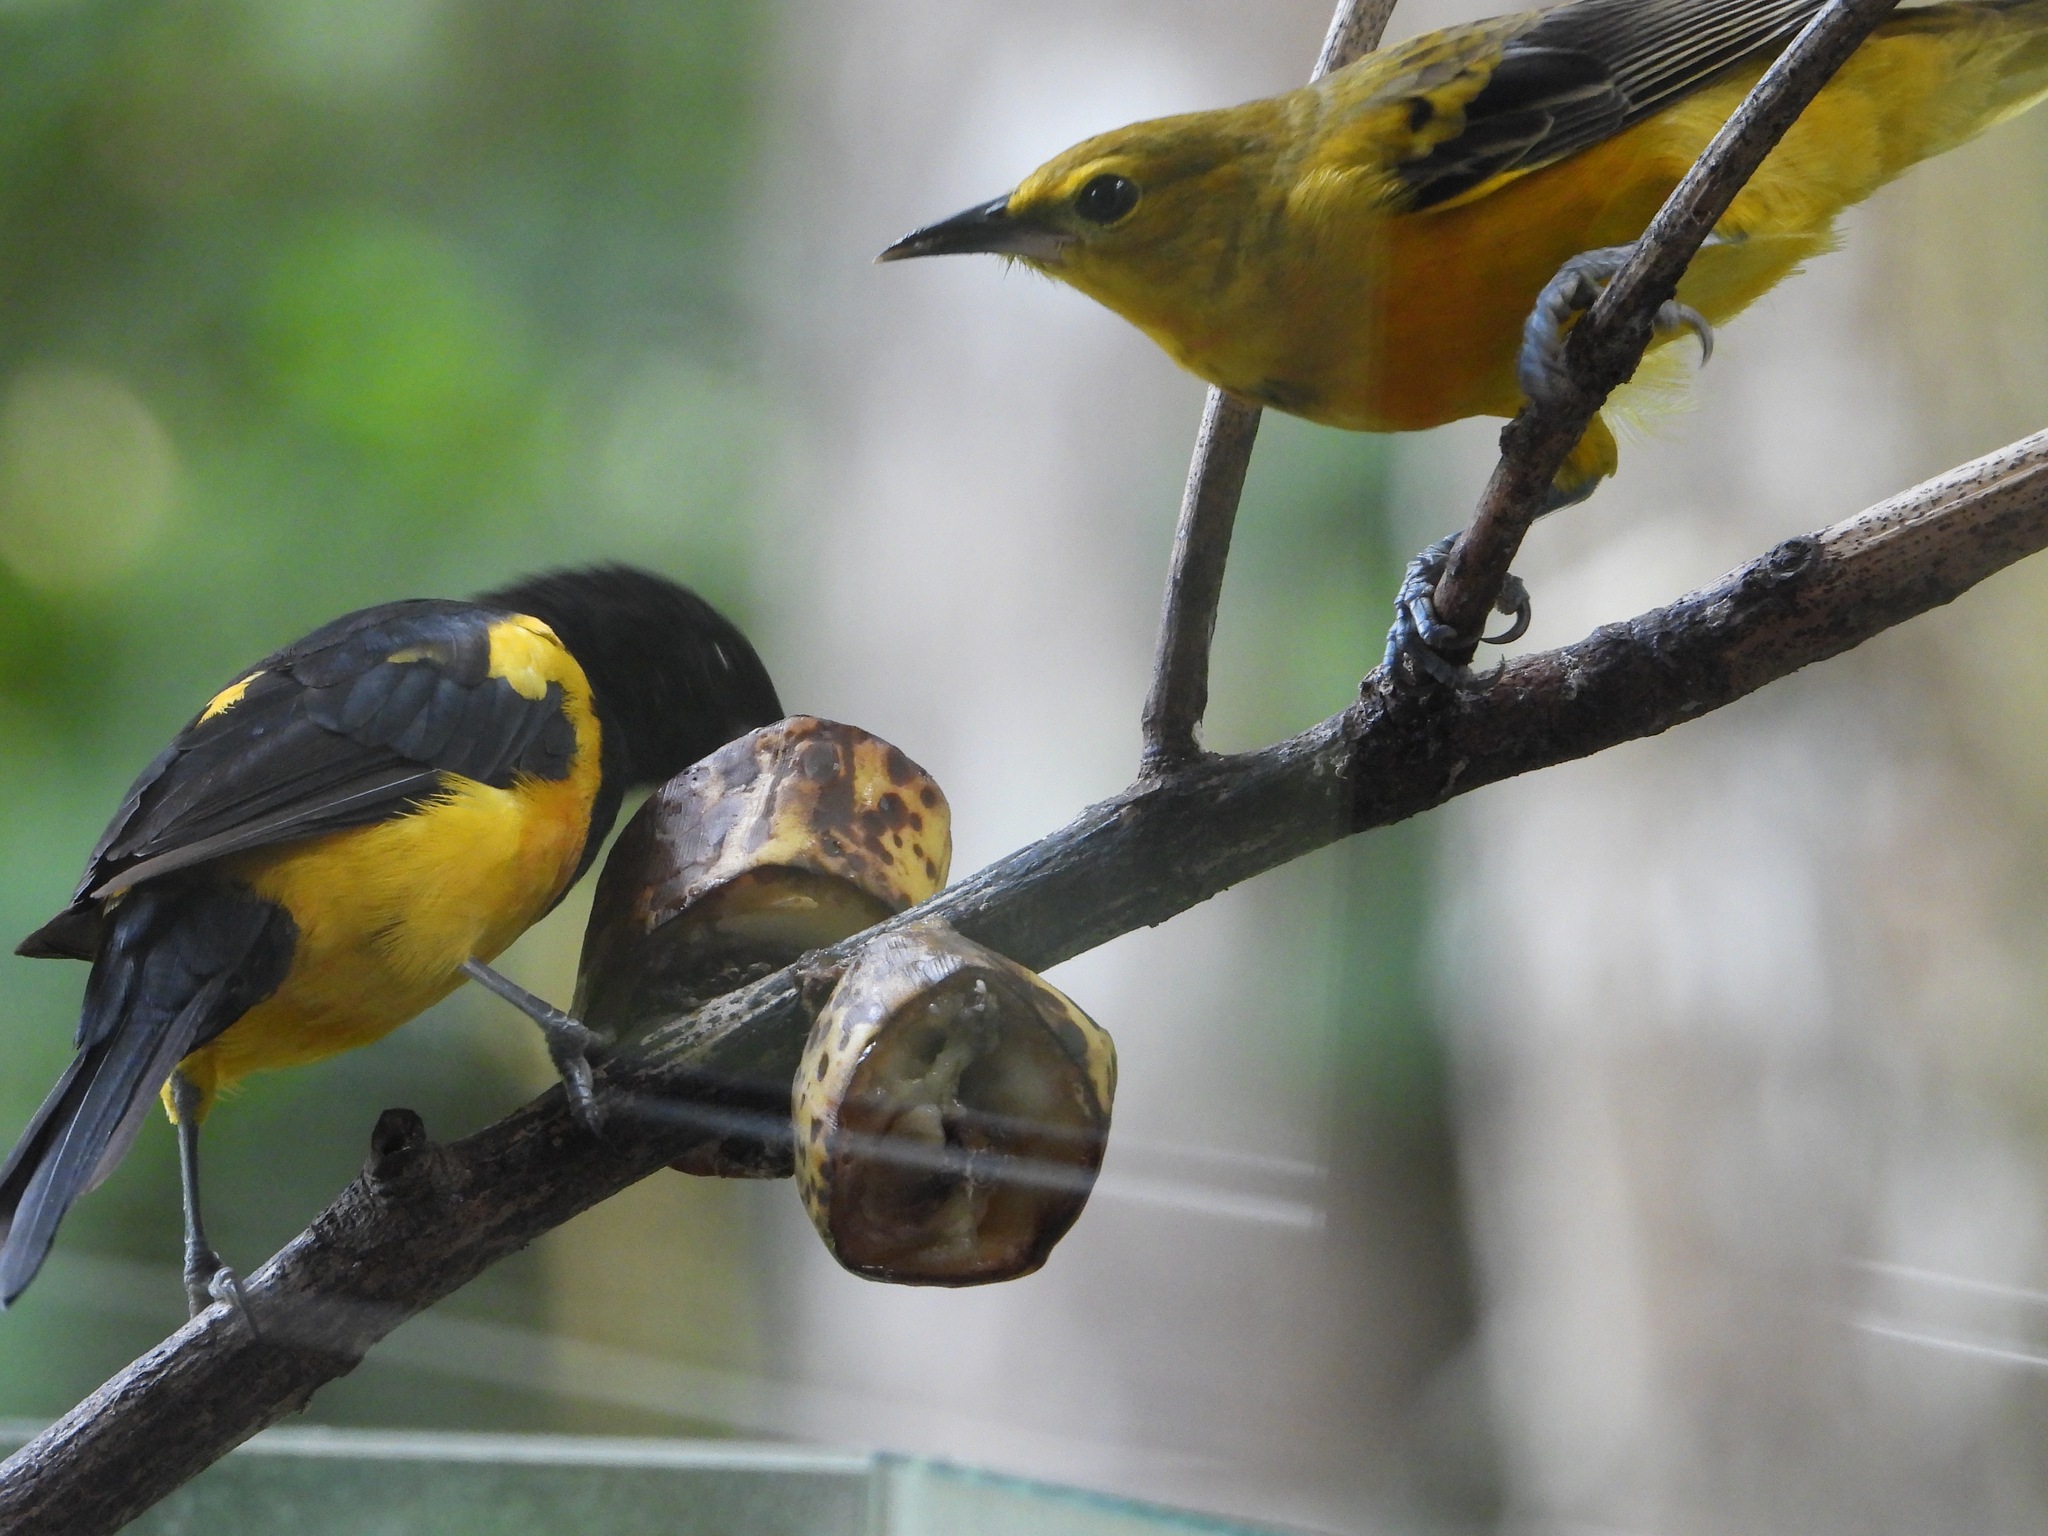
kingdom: Animalia
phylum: Chordata
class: Aves
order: Passeriformes
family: Icteridae
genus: Icterus
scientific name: Icterus wagleri
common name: Black-vented oriole
